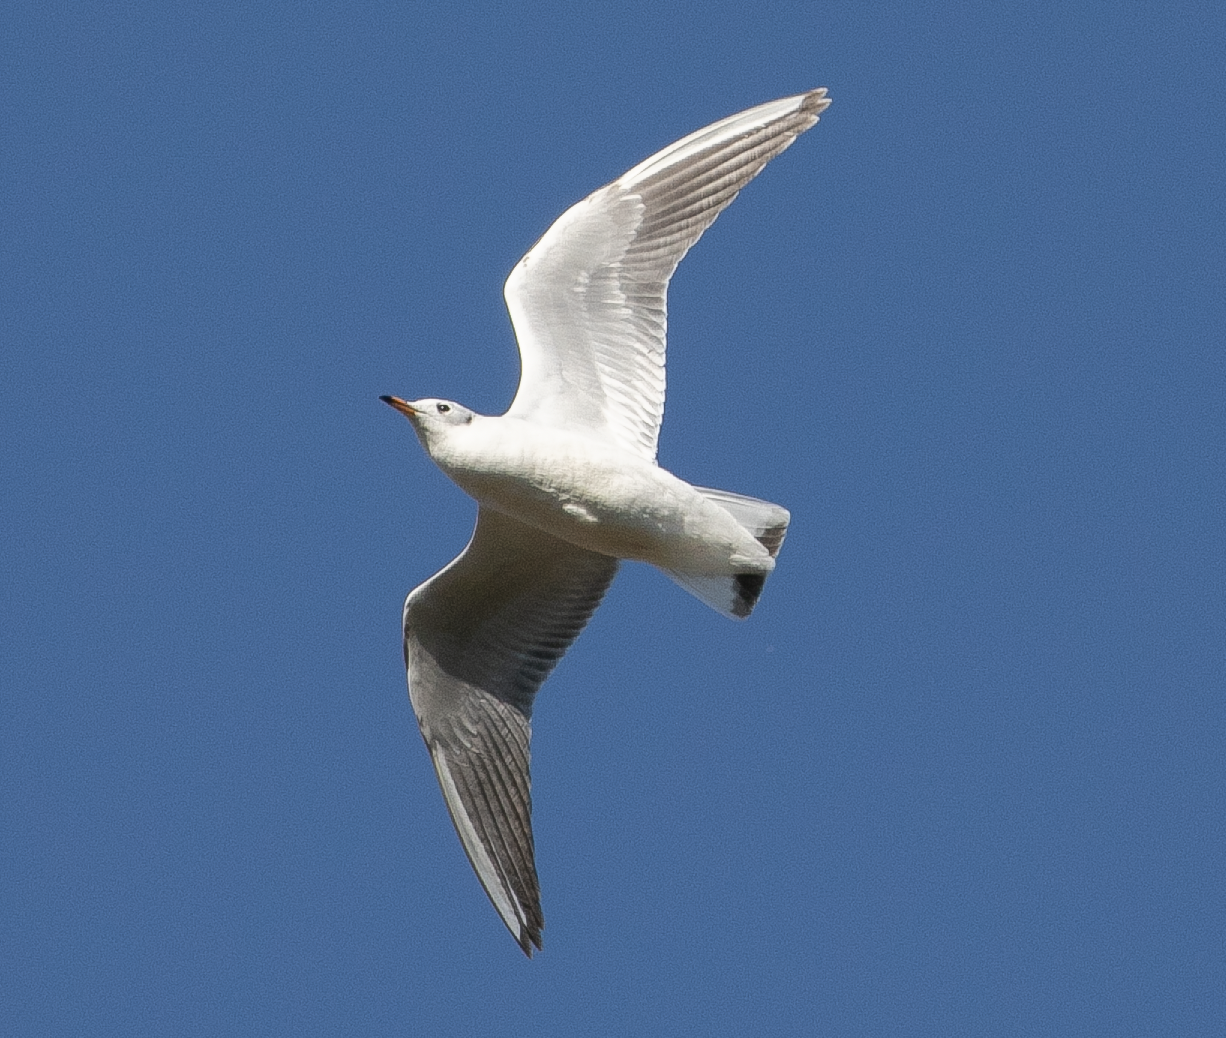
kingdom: Animalia
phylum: Chordata
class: Aves
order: Charadriiformes
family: Laridae
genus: Chroicocephalus
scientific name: Chroicocephalus ridibundus
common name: Black-headed gull
